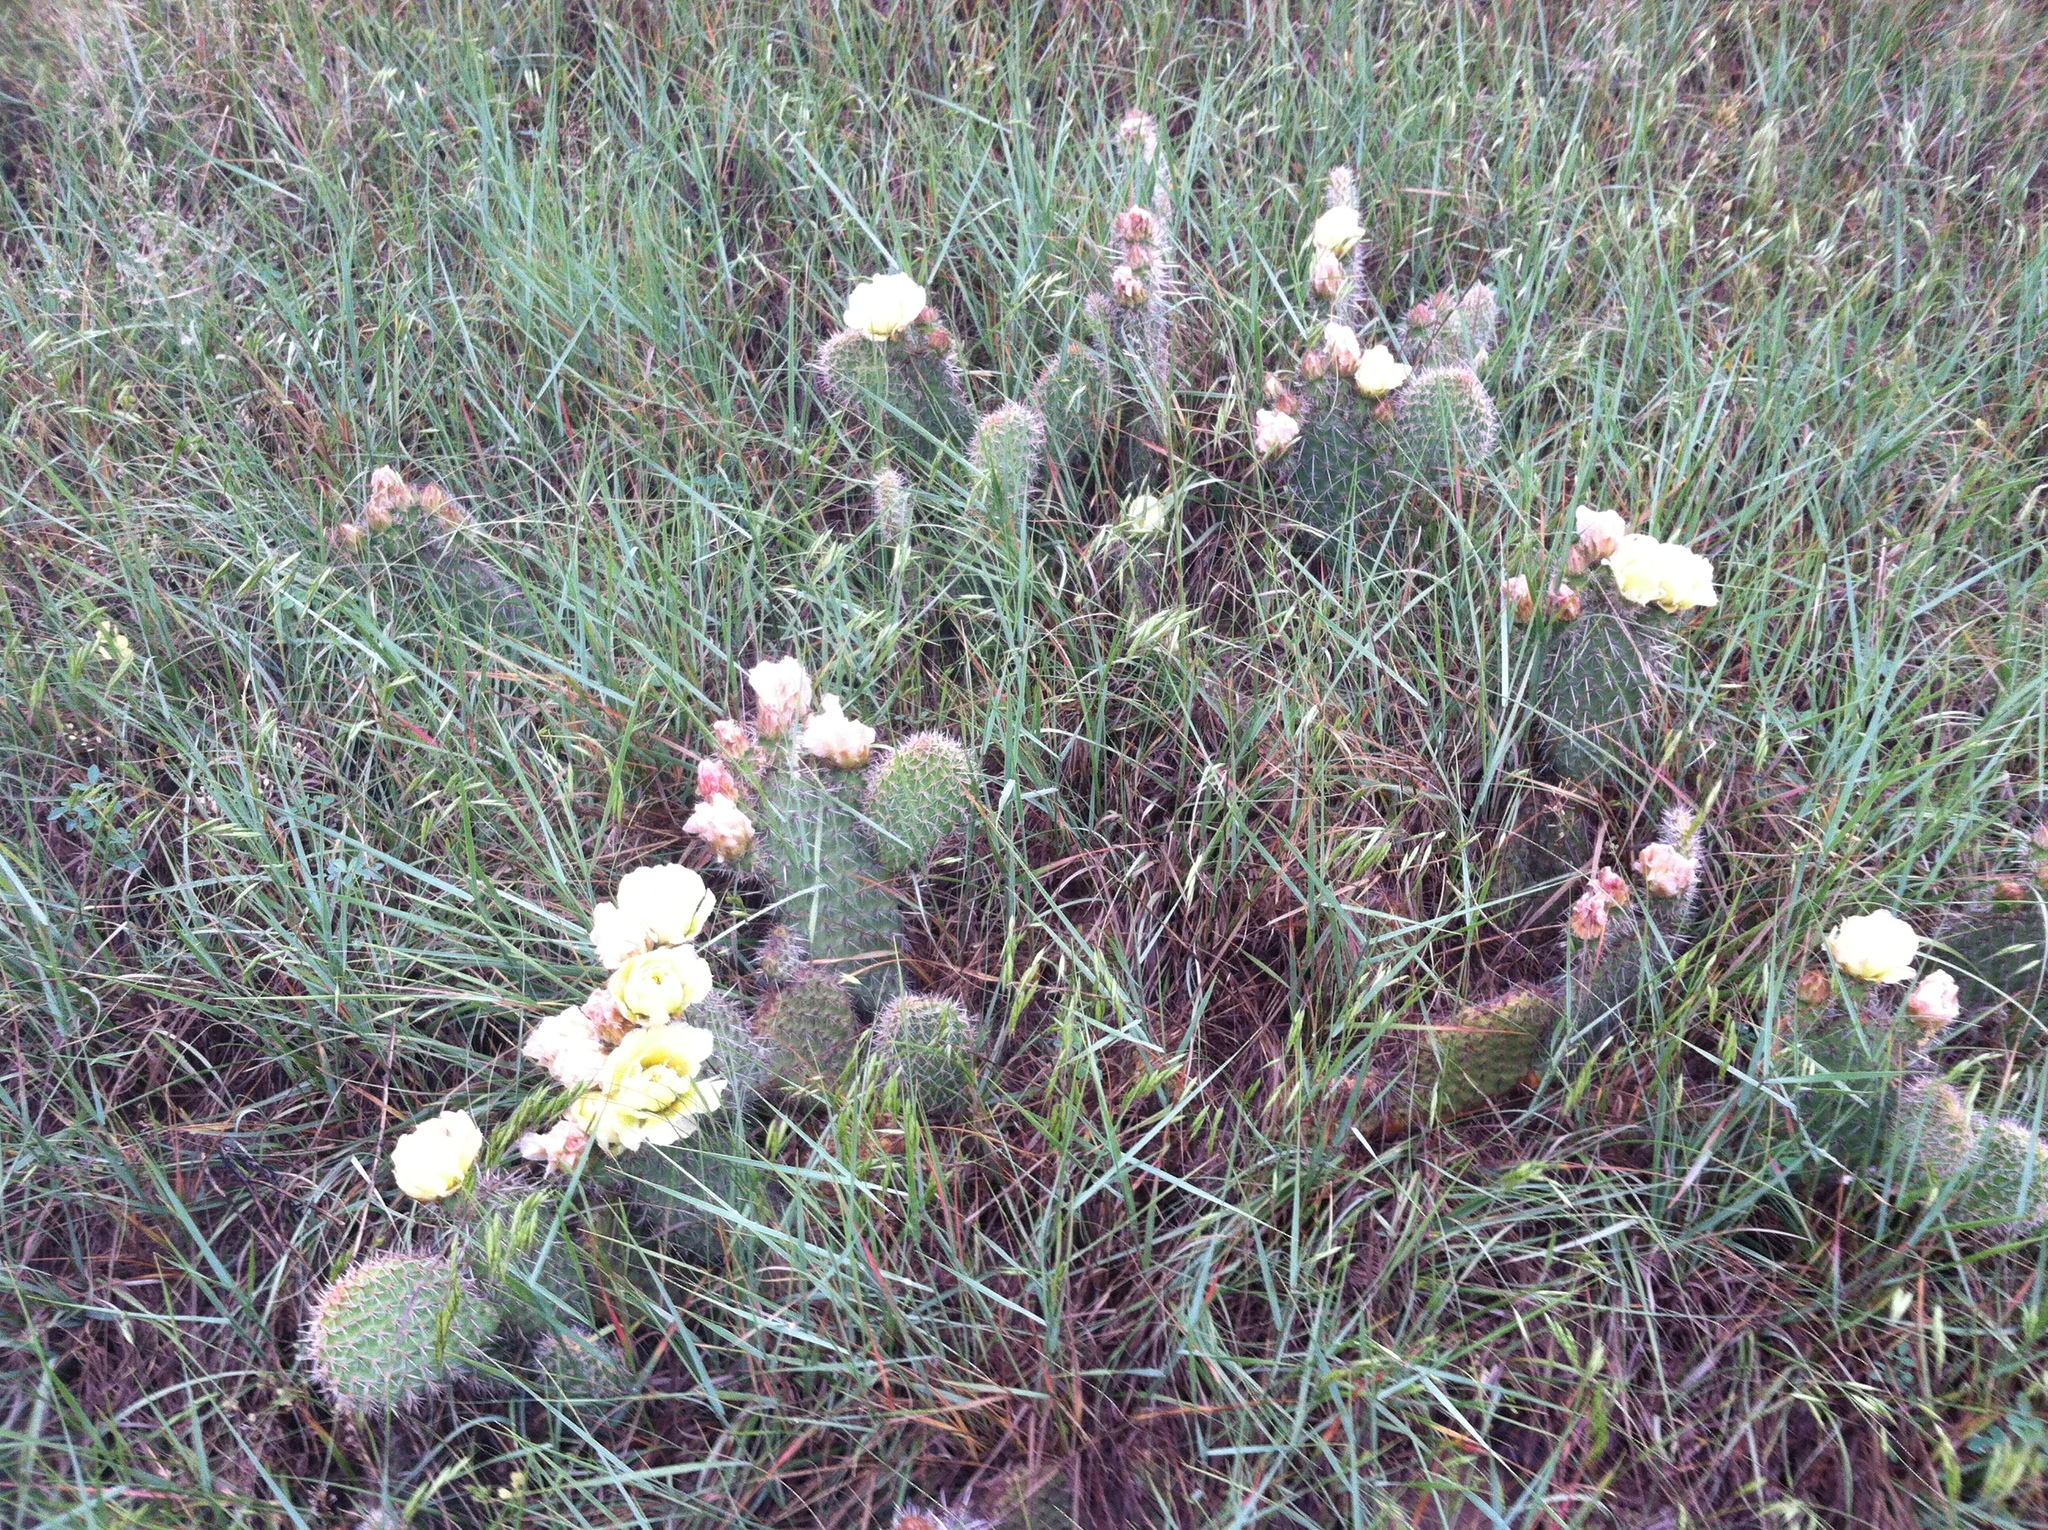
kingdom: Plantae
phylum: Tracheophyta
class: Magnoliopsida
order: Caryophyllales
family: Cactaceae
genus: Opuntia
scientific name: Opuntia polyacantha
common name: Plains prickly-pear
